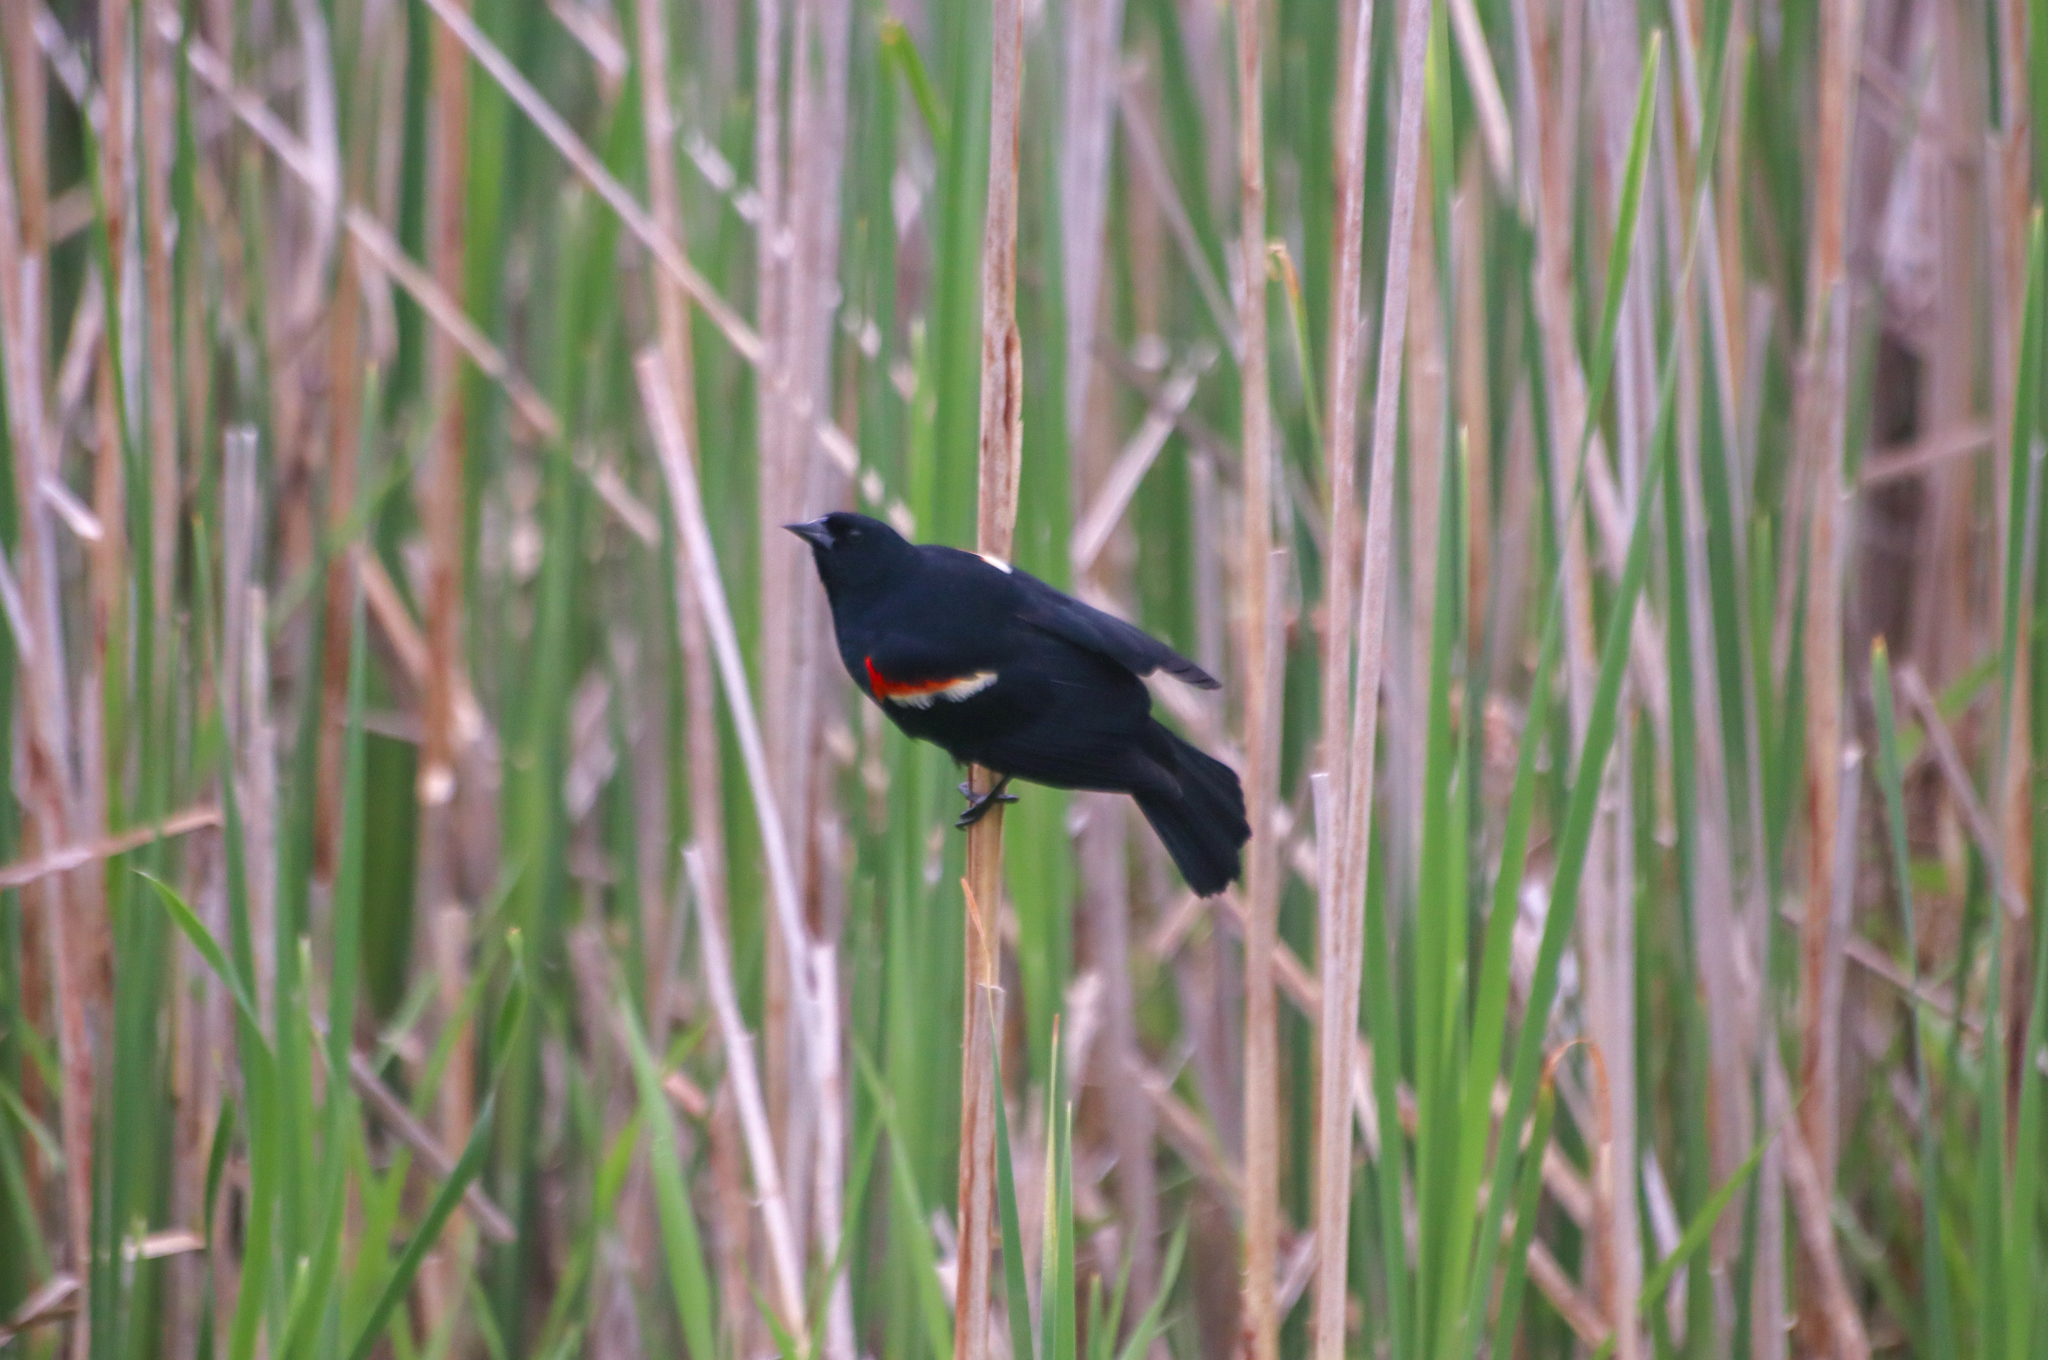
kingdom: Animalia
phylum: Chordata
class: Aves
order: Passeriformes
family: Icteridae
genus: Agelaius
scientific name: Agelaius phoeniceus
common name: Red-winged blackbird
